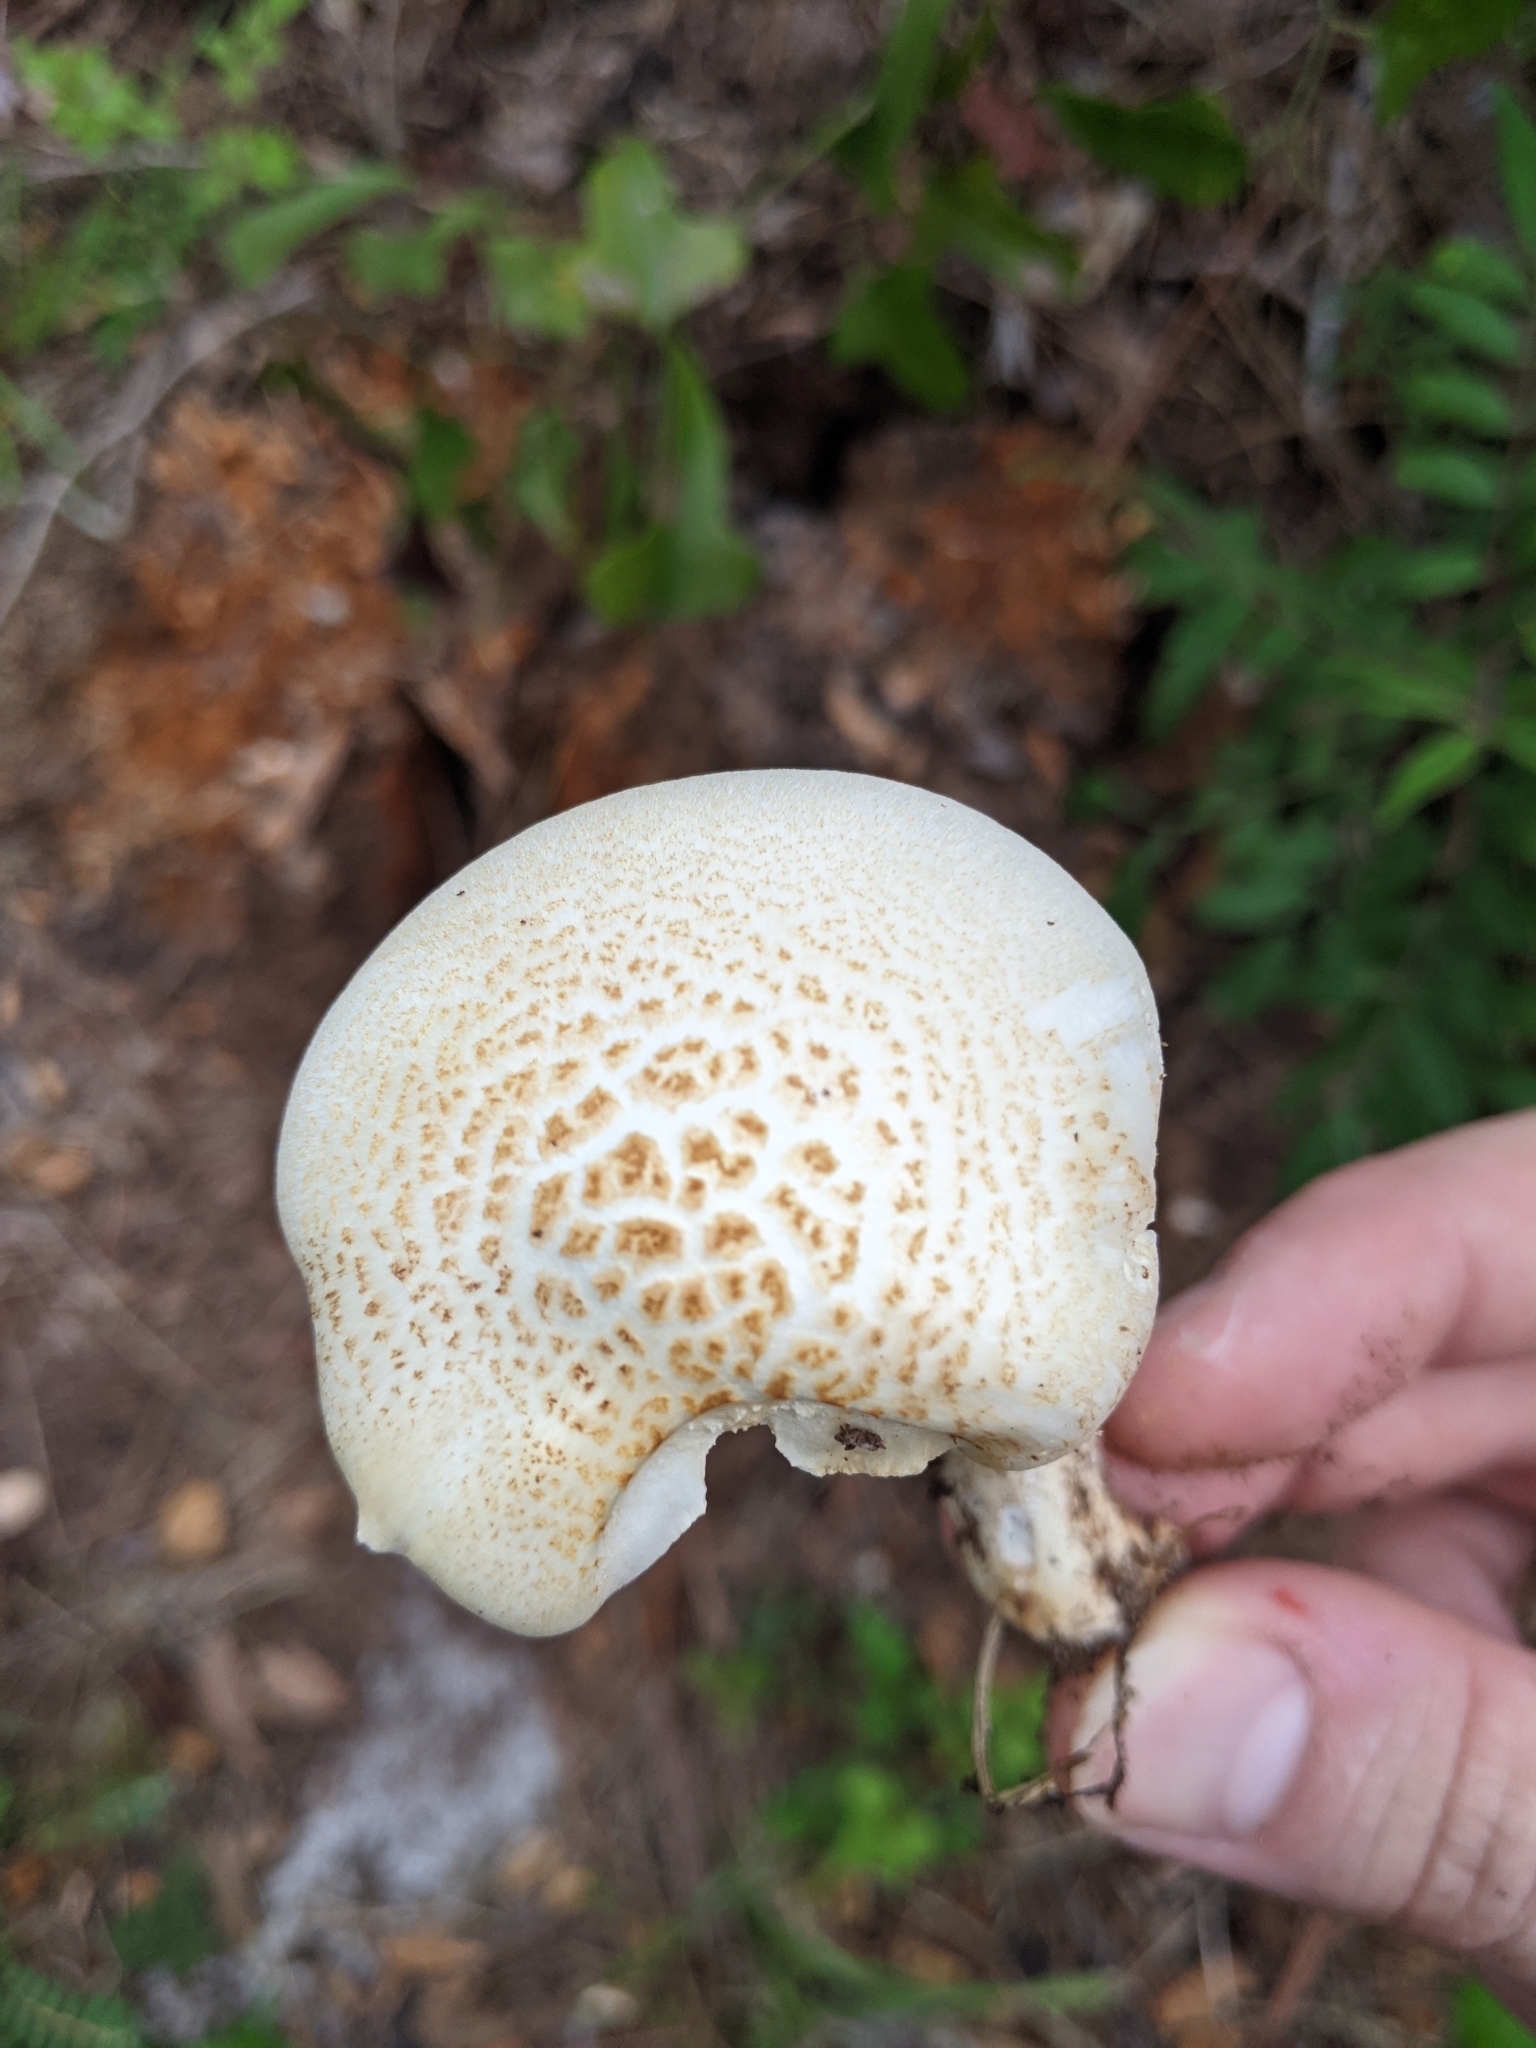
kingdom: Fungi
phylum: Basidiomycota
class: Agaricomycetes
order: Gloeophyllales
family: Gloeophyllaceae
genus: Neolentinus
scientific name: Neolentinus lepideus
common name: Scaly sawgill
